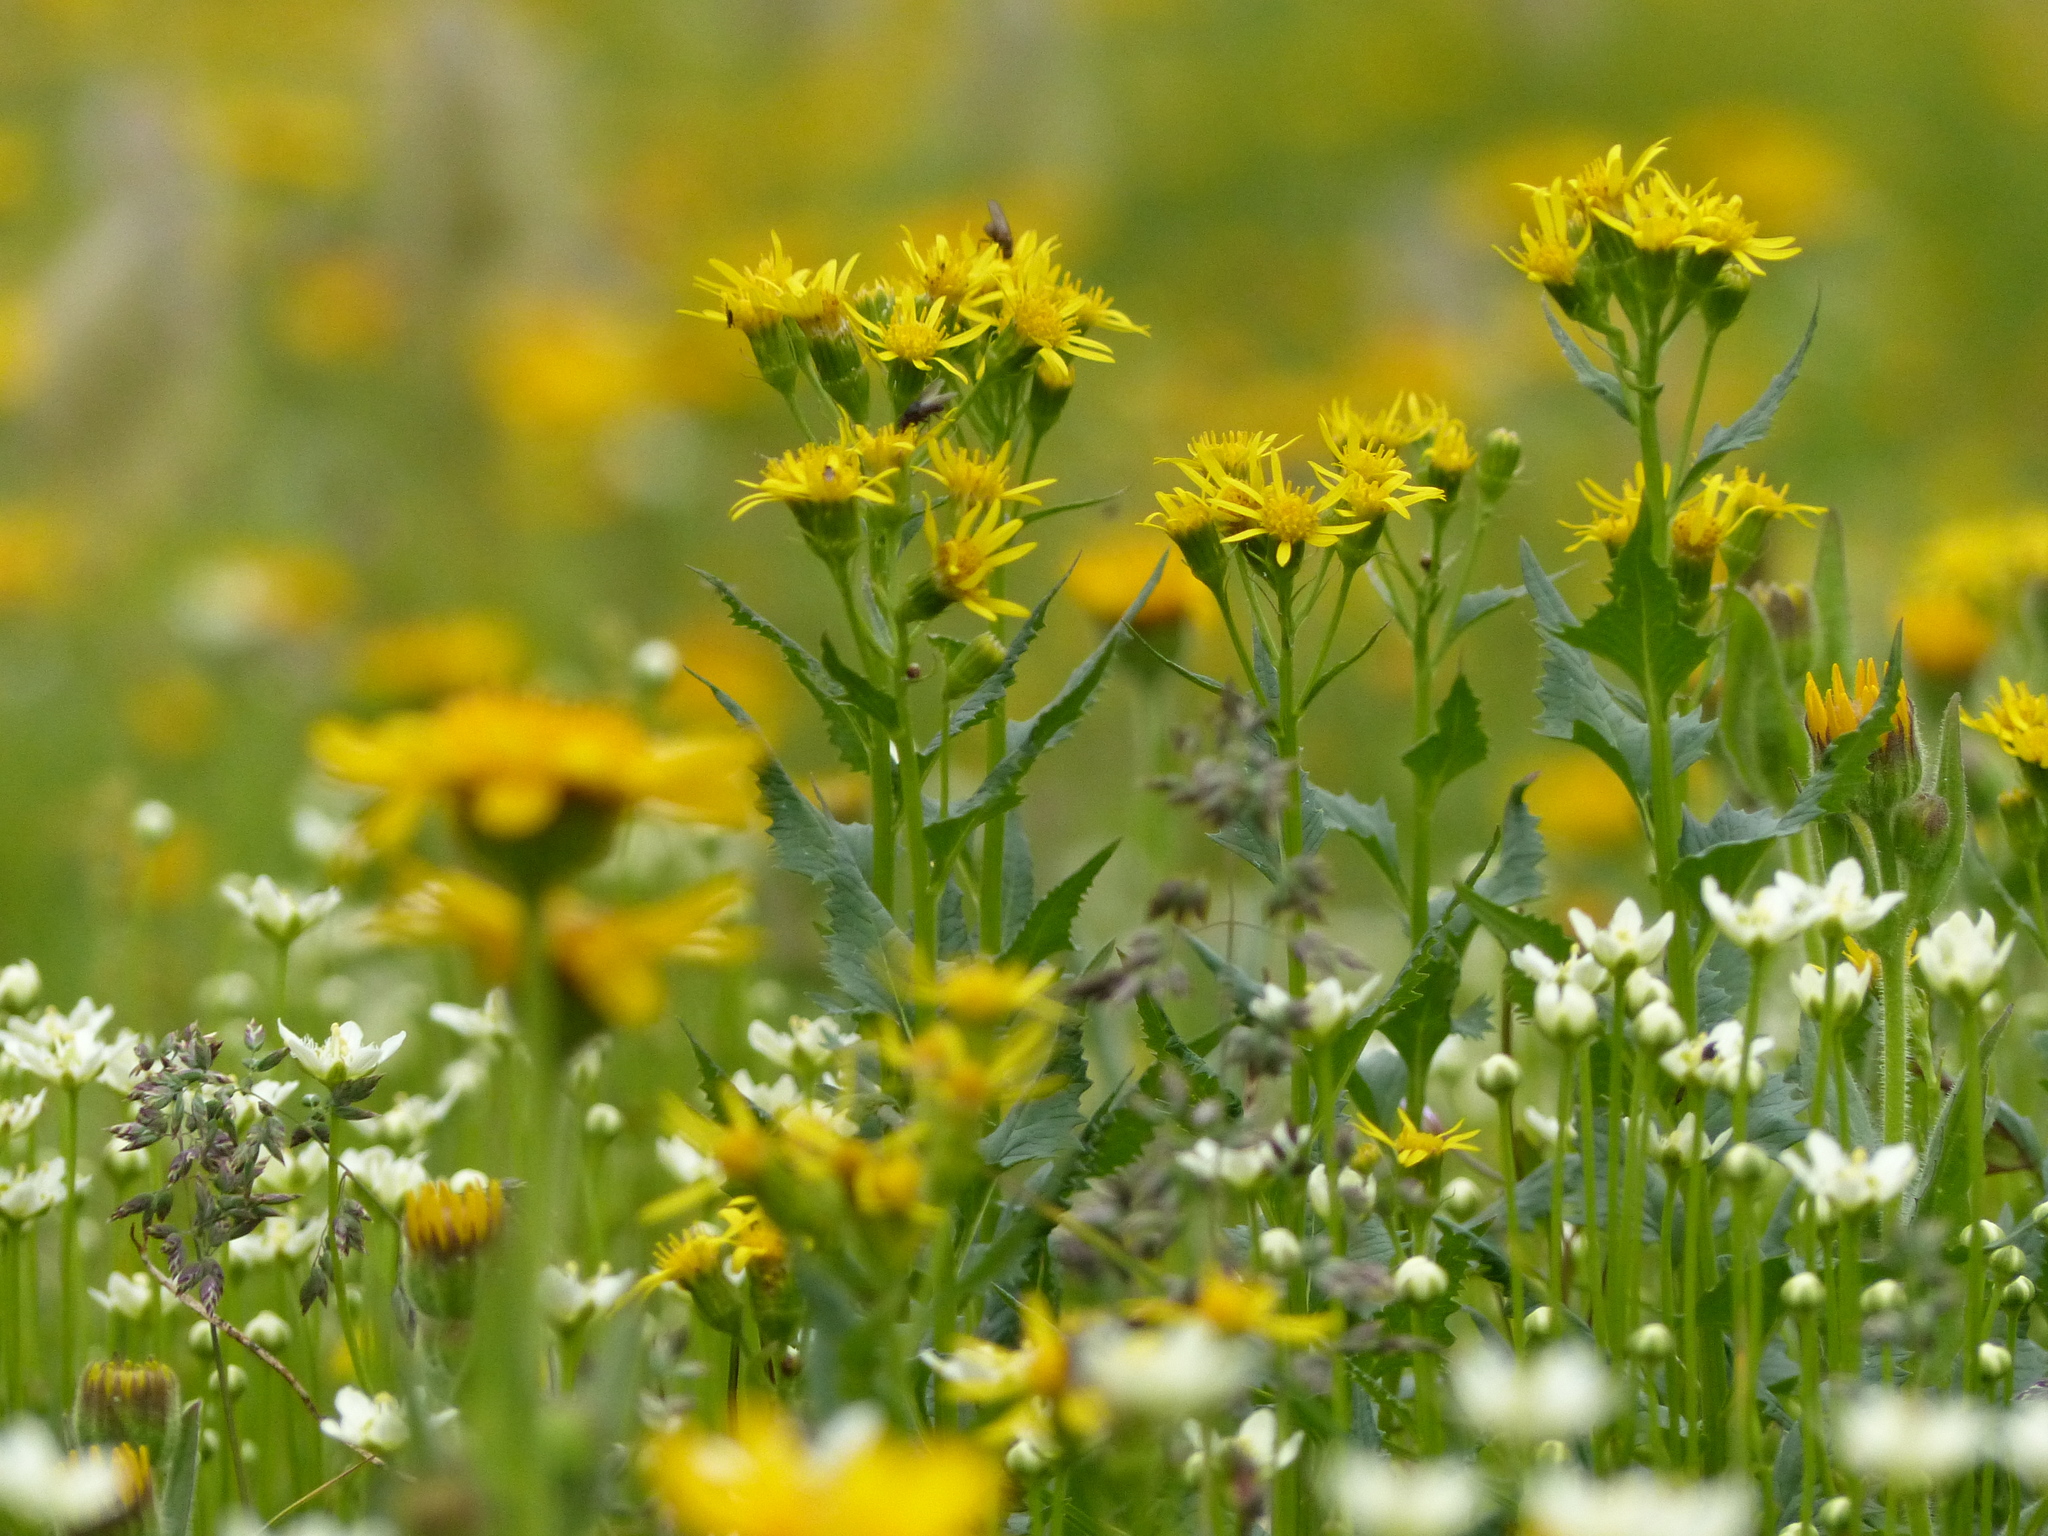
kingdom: Plantae
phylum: Tracheophyta
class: Magnoliopsida
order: Asterales
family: Asteraceae
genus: Senecio
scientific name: Senecio triangularis
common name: Arrowleaf butterweed
